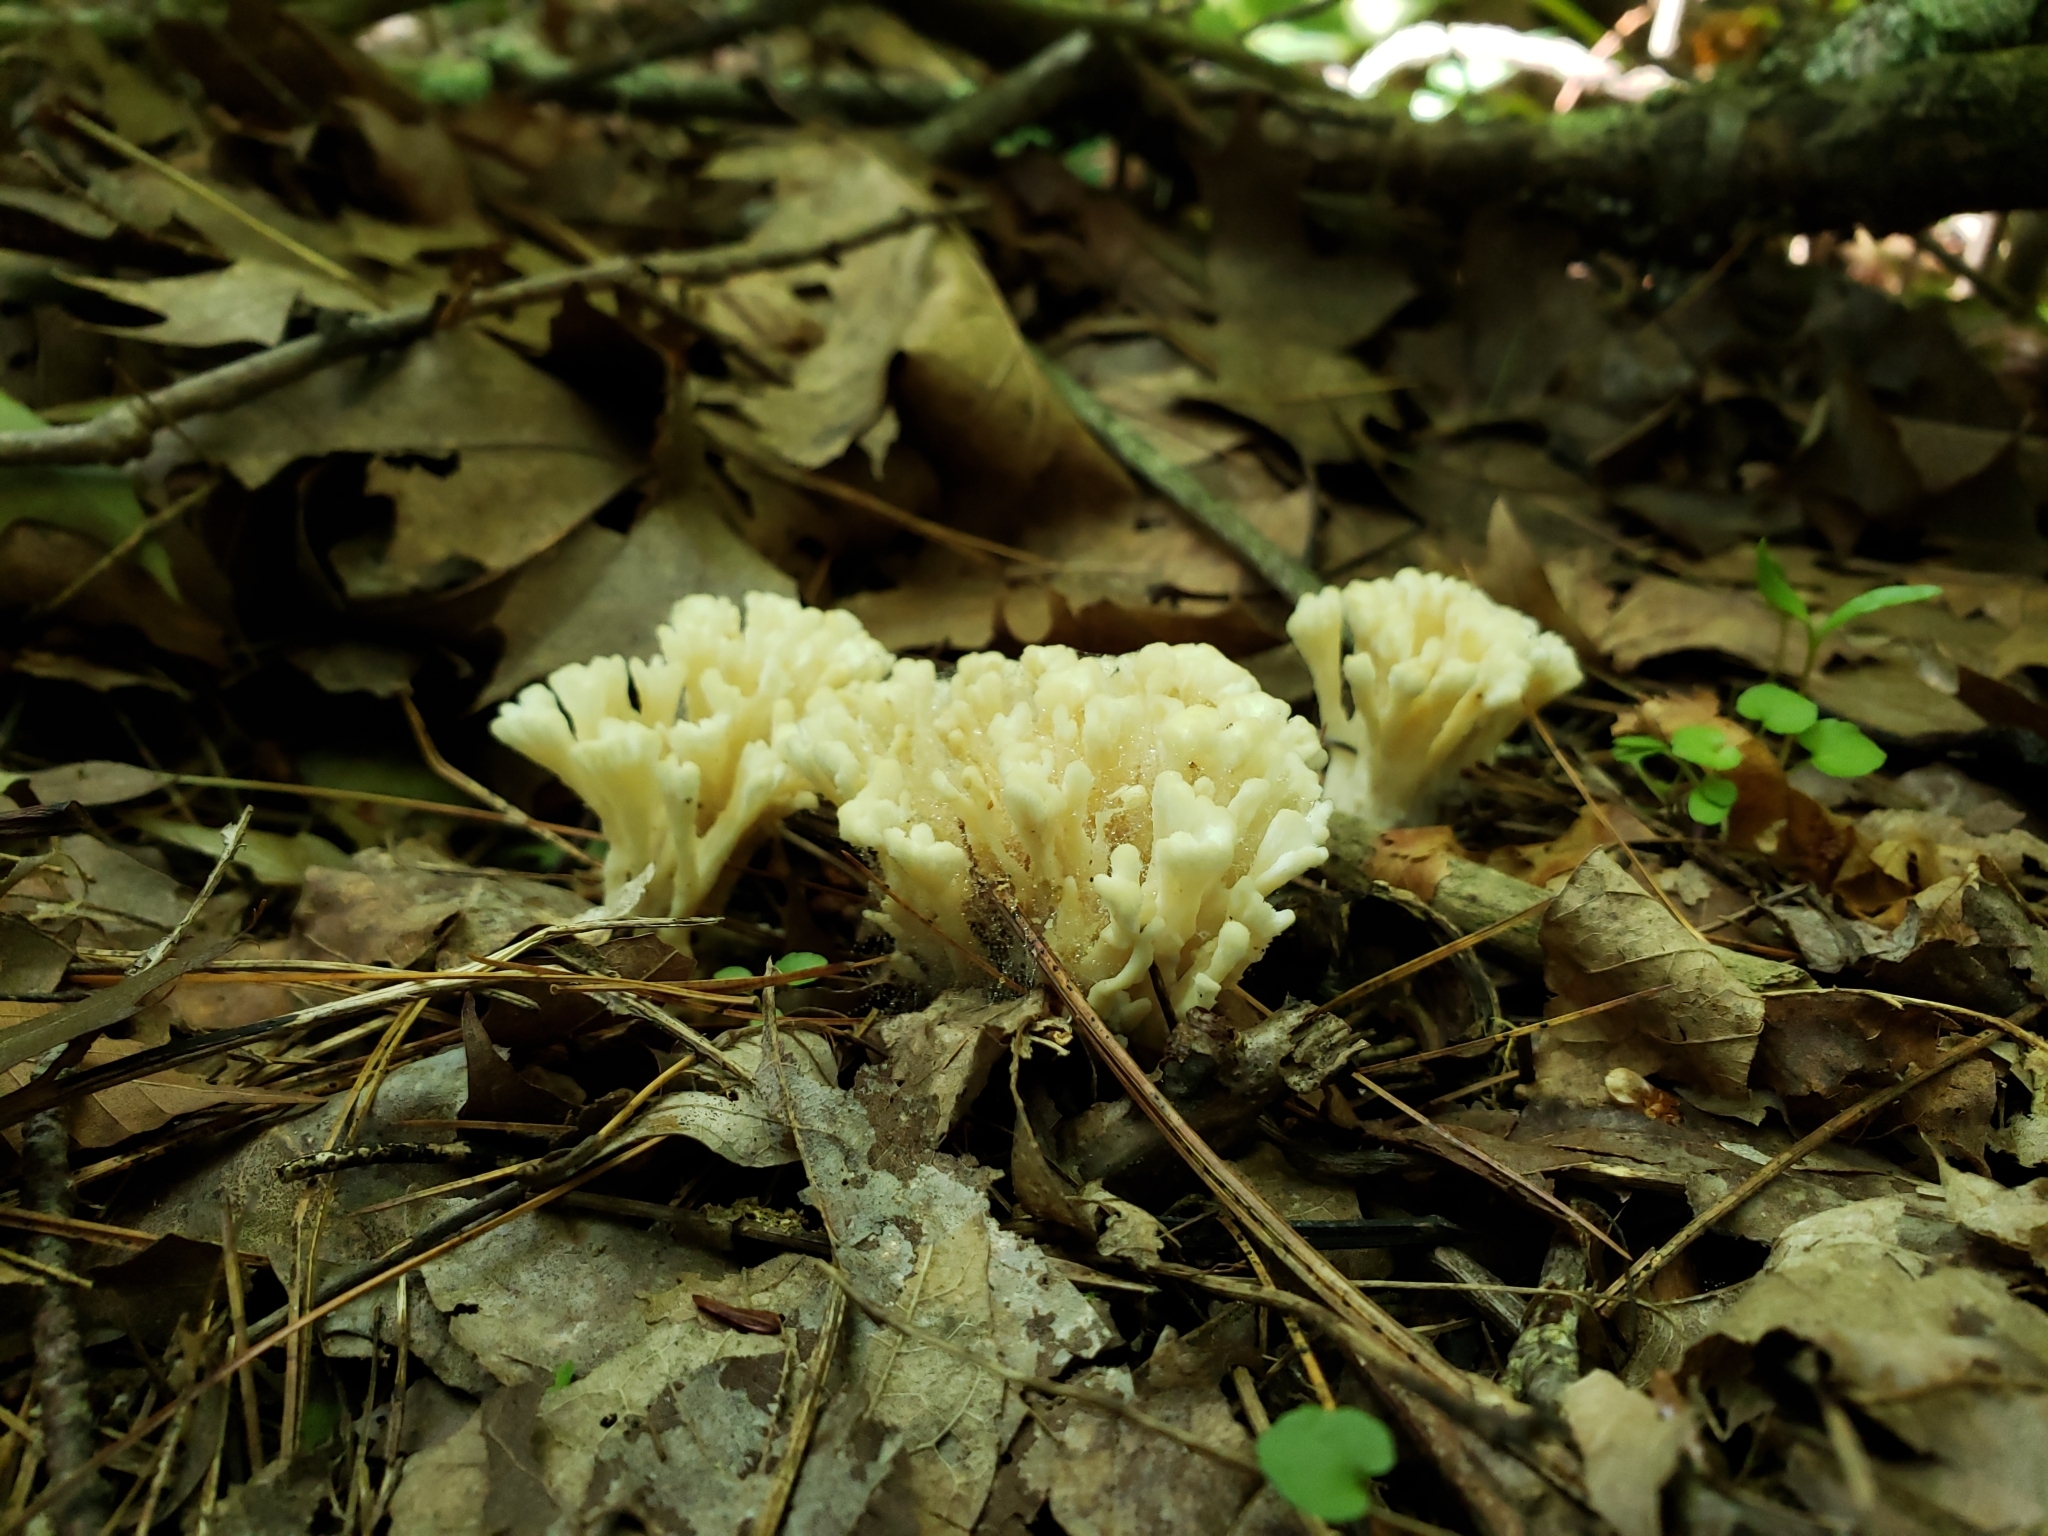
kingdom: Fungi
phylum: Basidiomycota
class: Agaricomycetes
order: Sebacinales
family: Sebacinaceae
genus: Sebacina
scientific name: Sebacina schweinitzii
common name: Jellied false coral fungus
